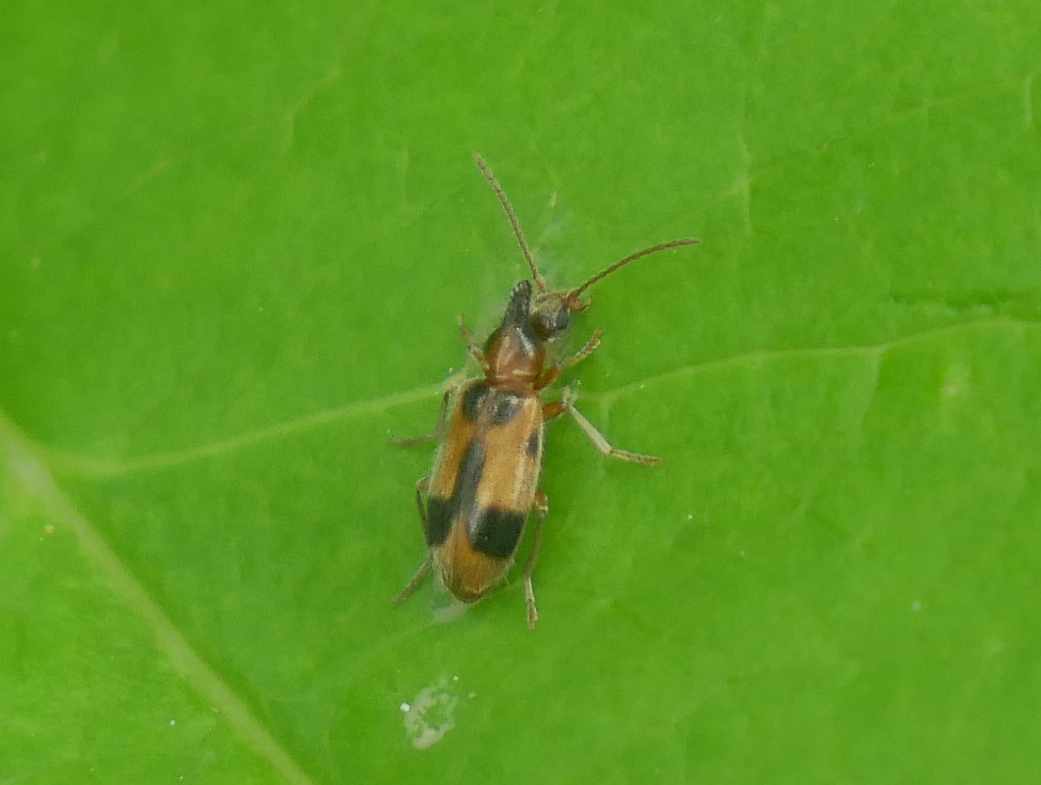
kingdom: Animalia
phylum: Arthropoda
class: Insecta
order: Coleoptera
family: Anthicidae
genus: Notoxus
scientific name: Notoxus monoceros
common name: Monoceros beetle
